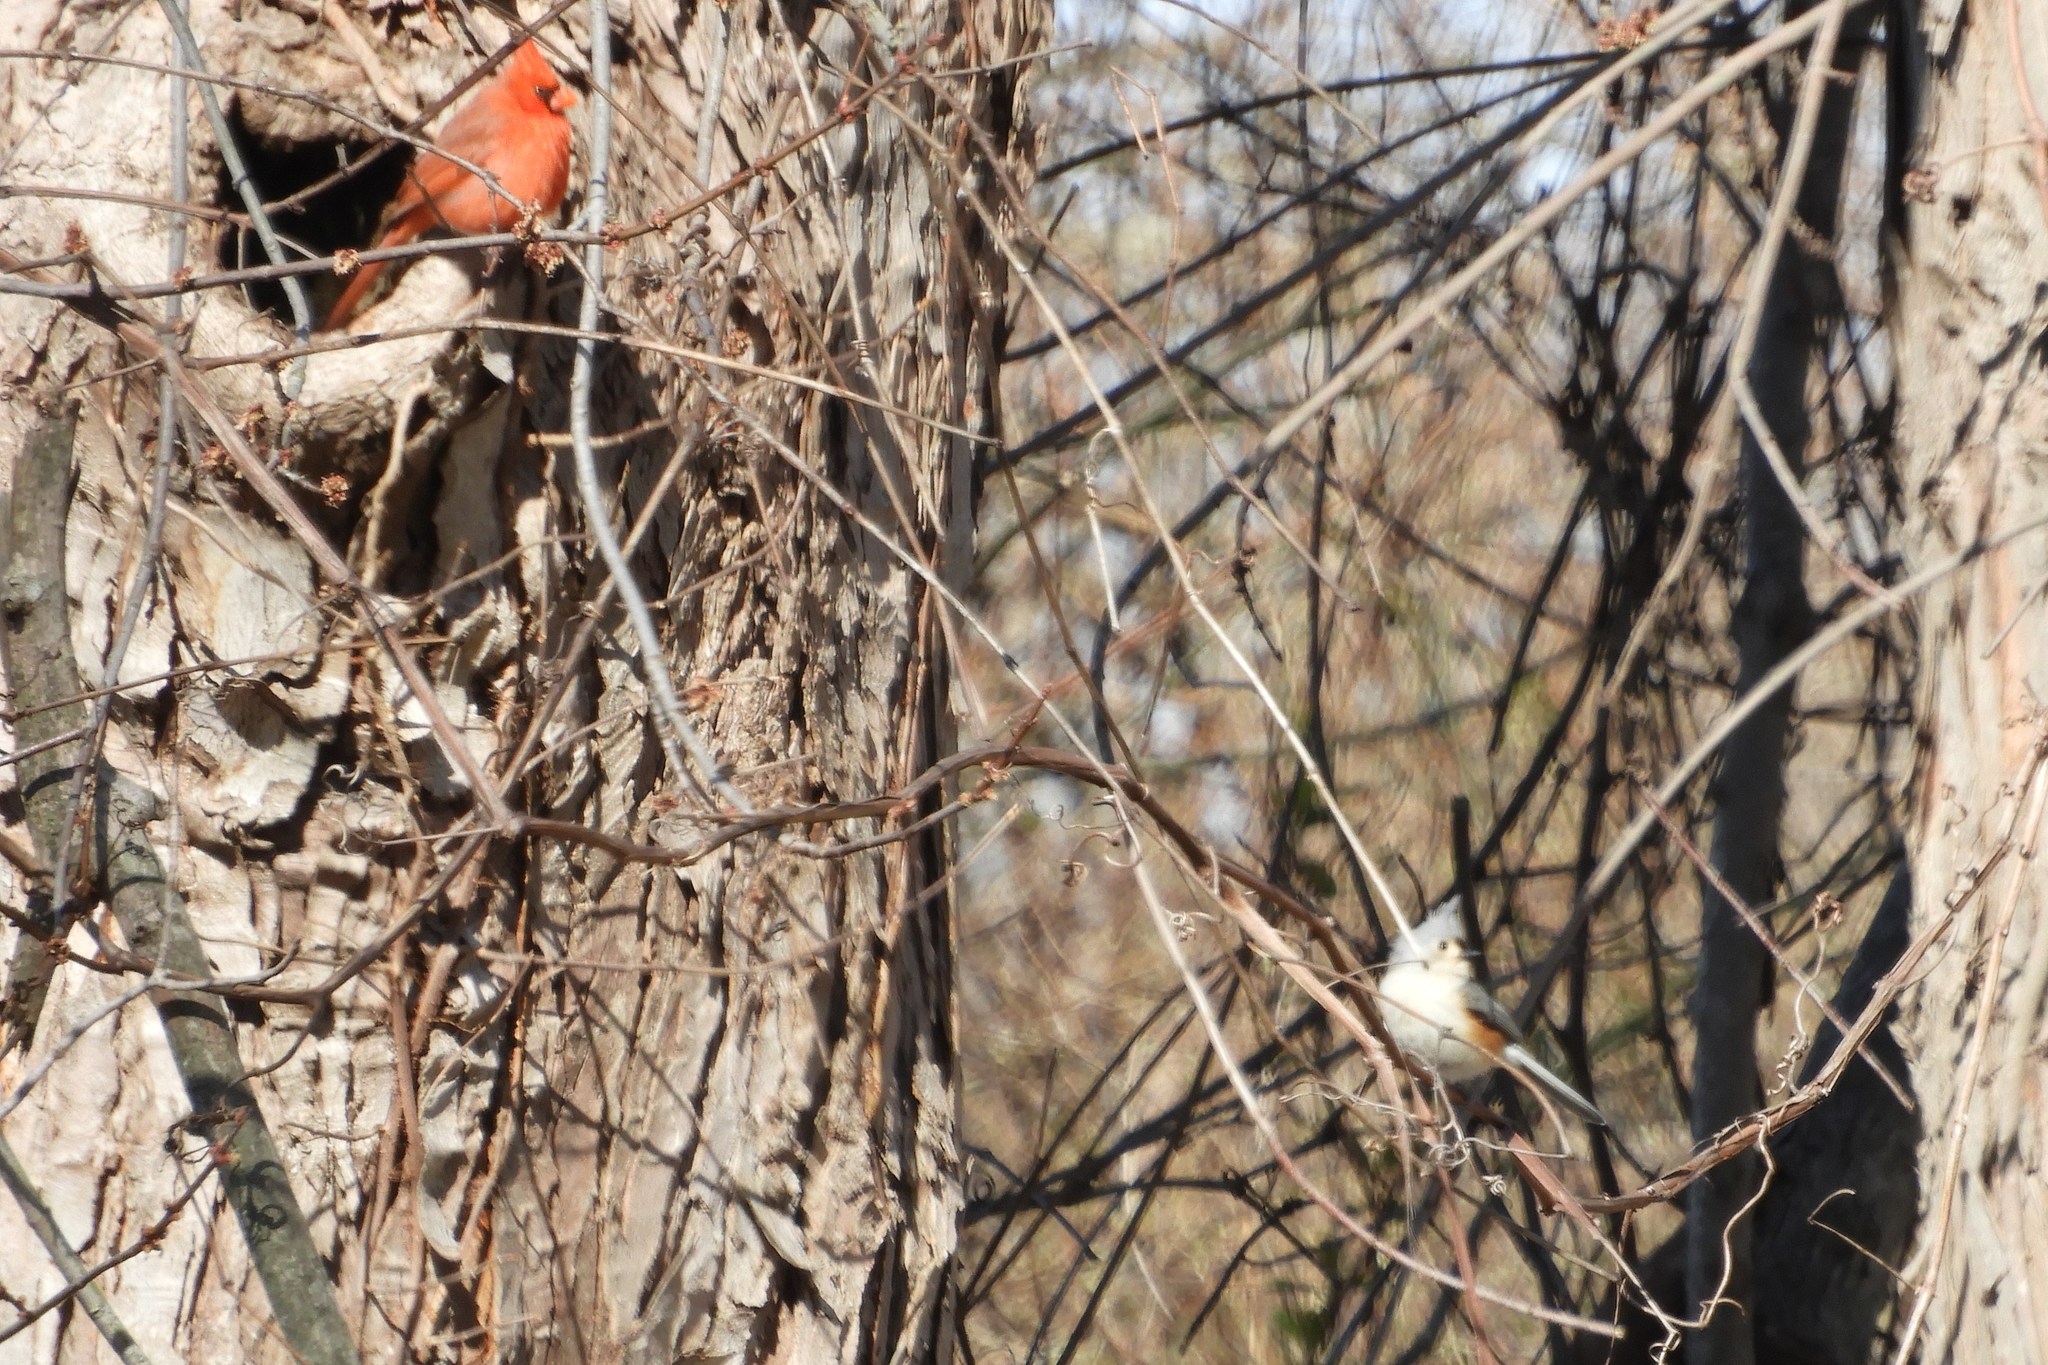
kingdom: Animalia
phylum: Chordata
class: Aves
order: Passeriformes
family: Cardinalidae
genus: Cardinalis
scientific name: Cardinalis cardinalis
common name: Northern cardinal
